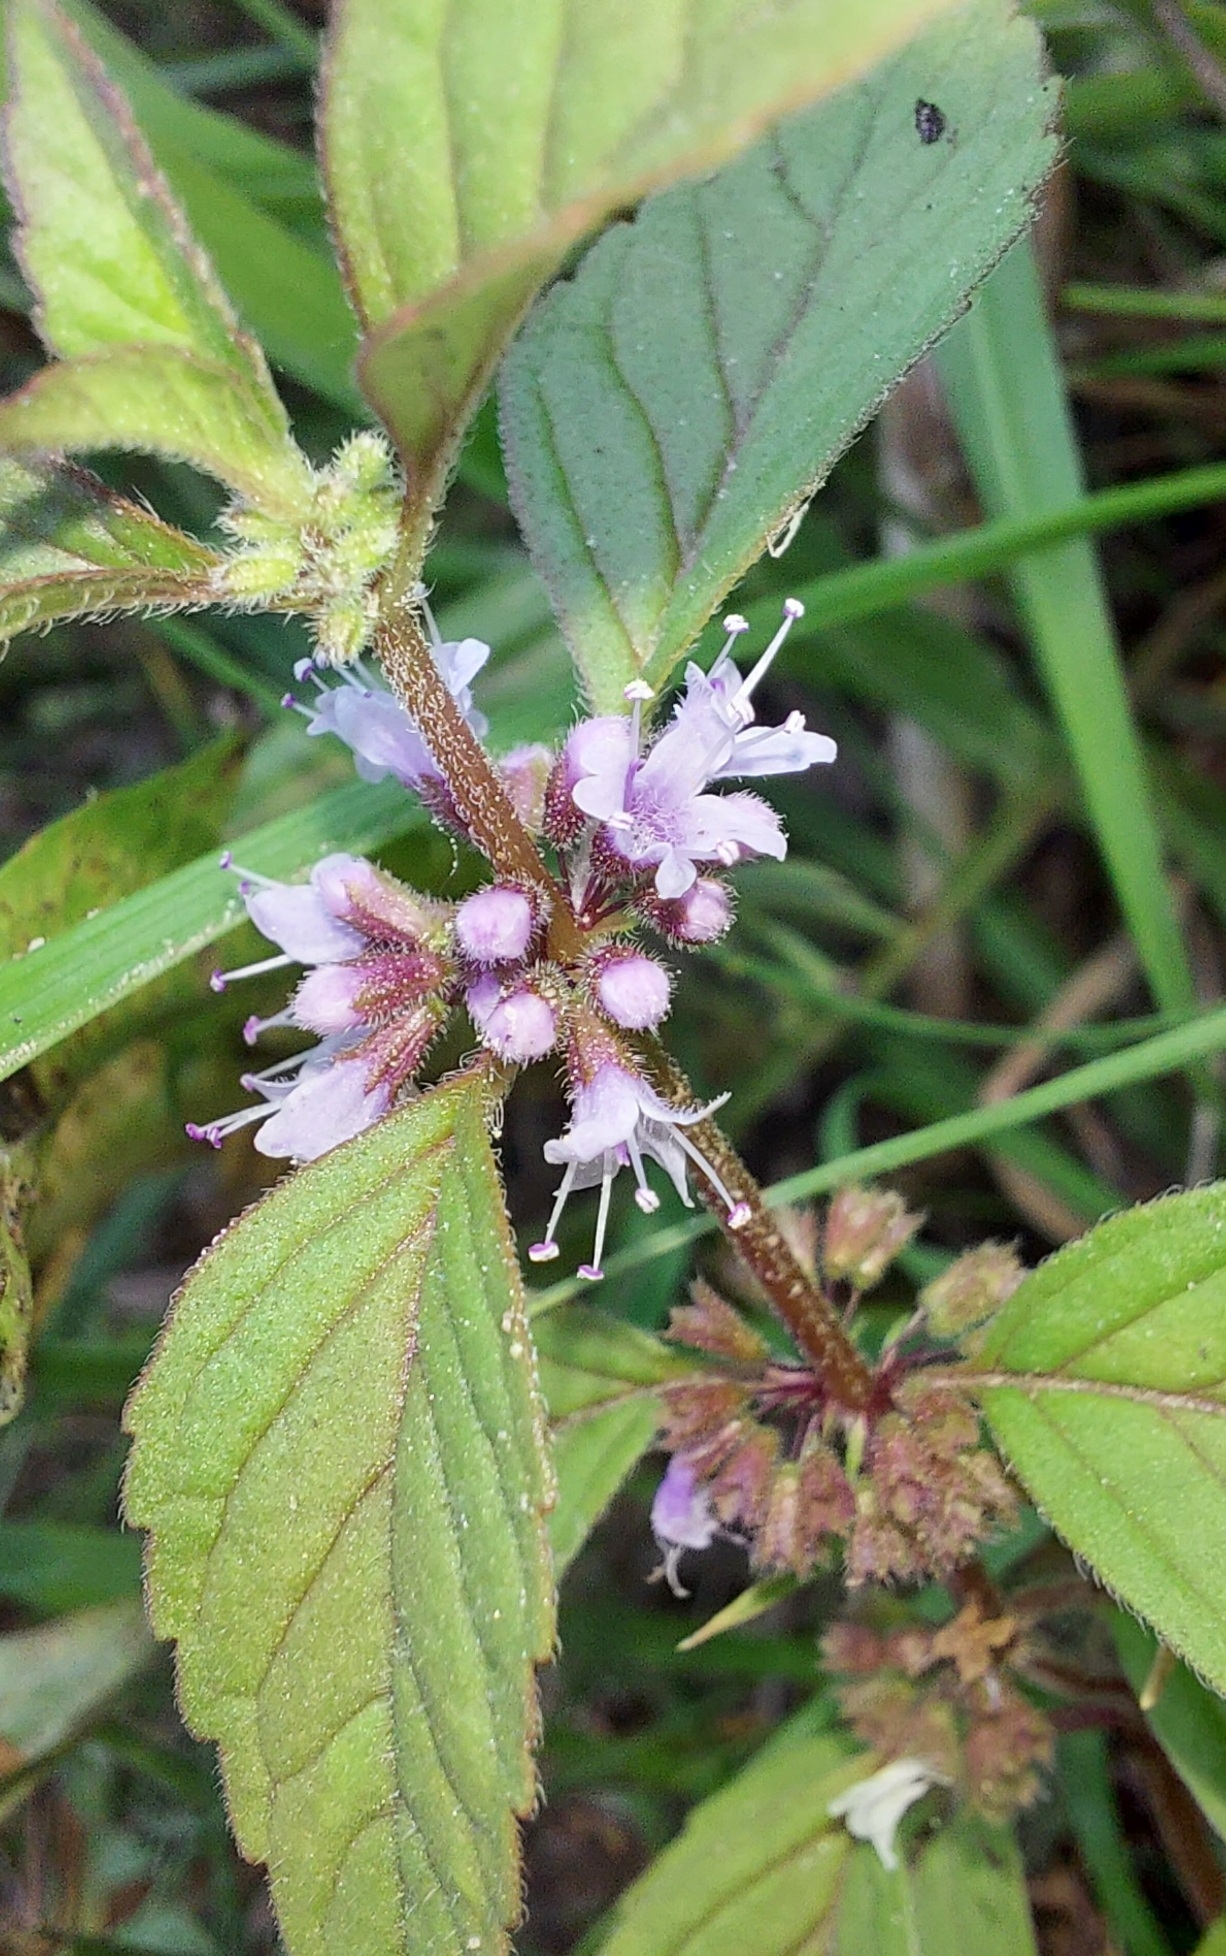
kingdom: Plantae
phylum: Tracheophyta
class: Magnoliopsida
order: Lamiales
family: Lamiaceae
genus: Mentha
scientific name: Mentha arvensis
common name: Corn mint
